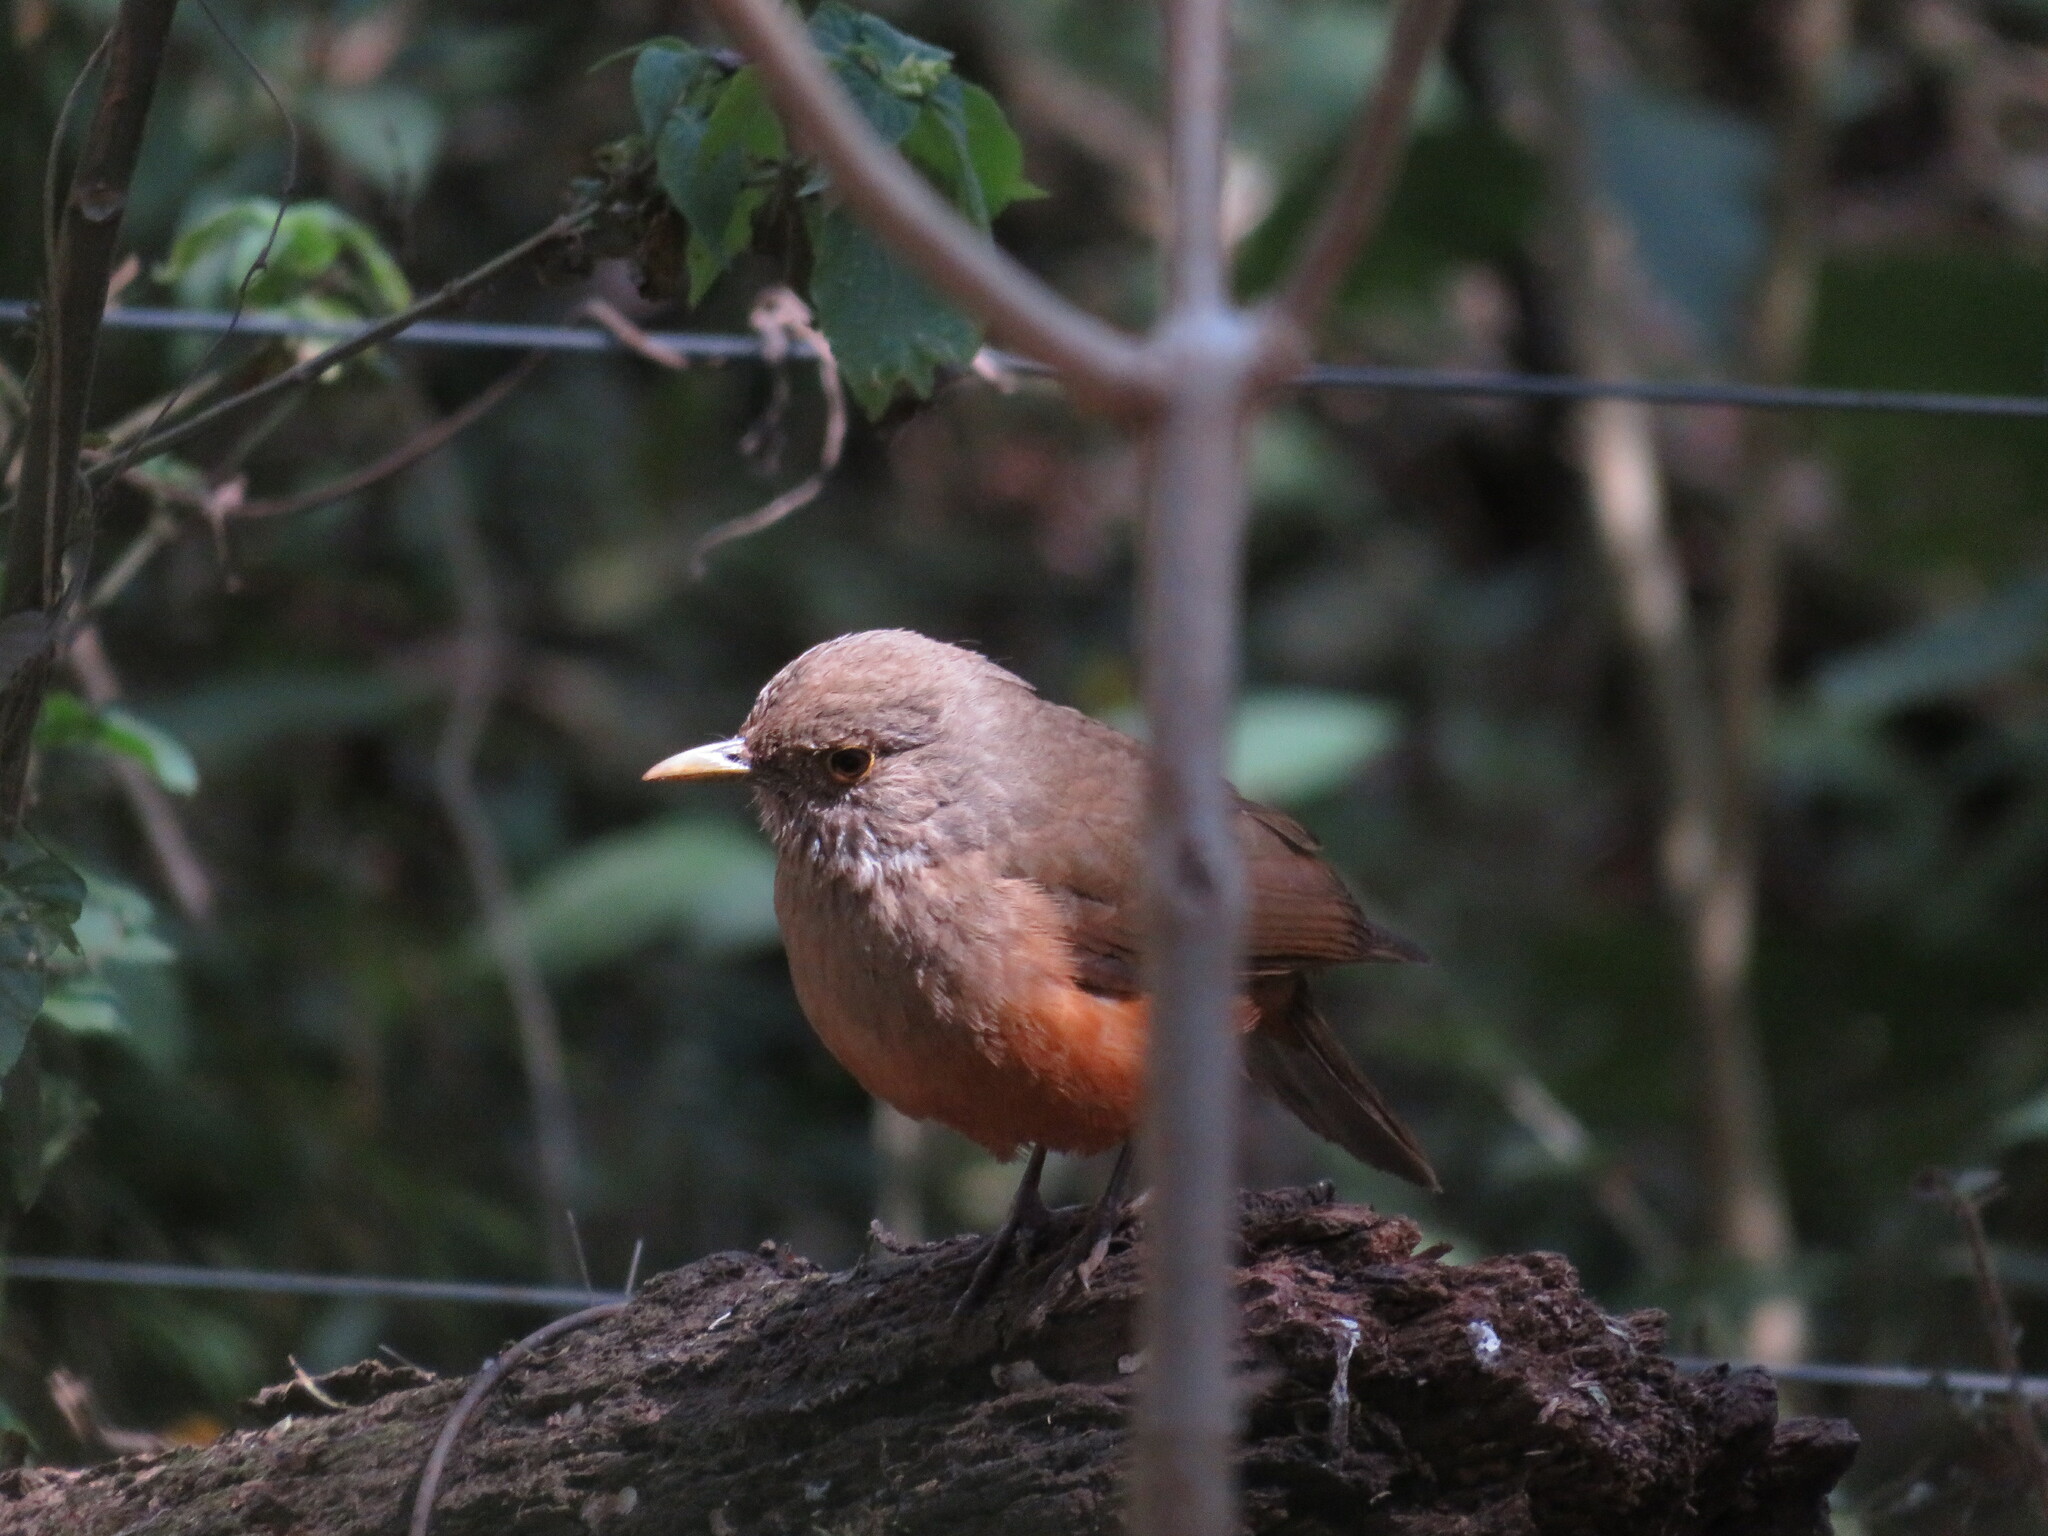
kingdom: Animalia
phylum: Chordata
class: Aves
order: Passeriformes
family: Turdidae
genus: Turdus
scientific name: Turdus rufiventris
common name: Rufous-bellied thrush
